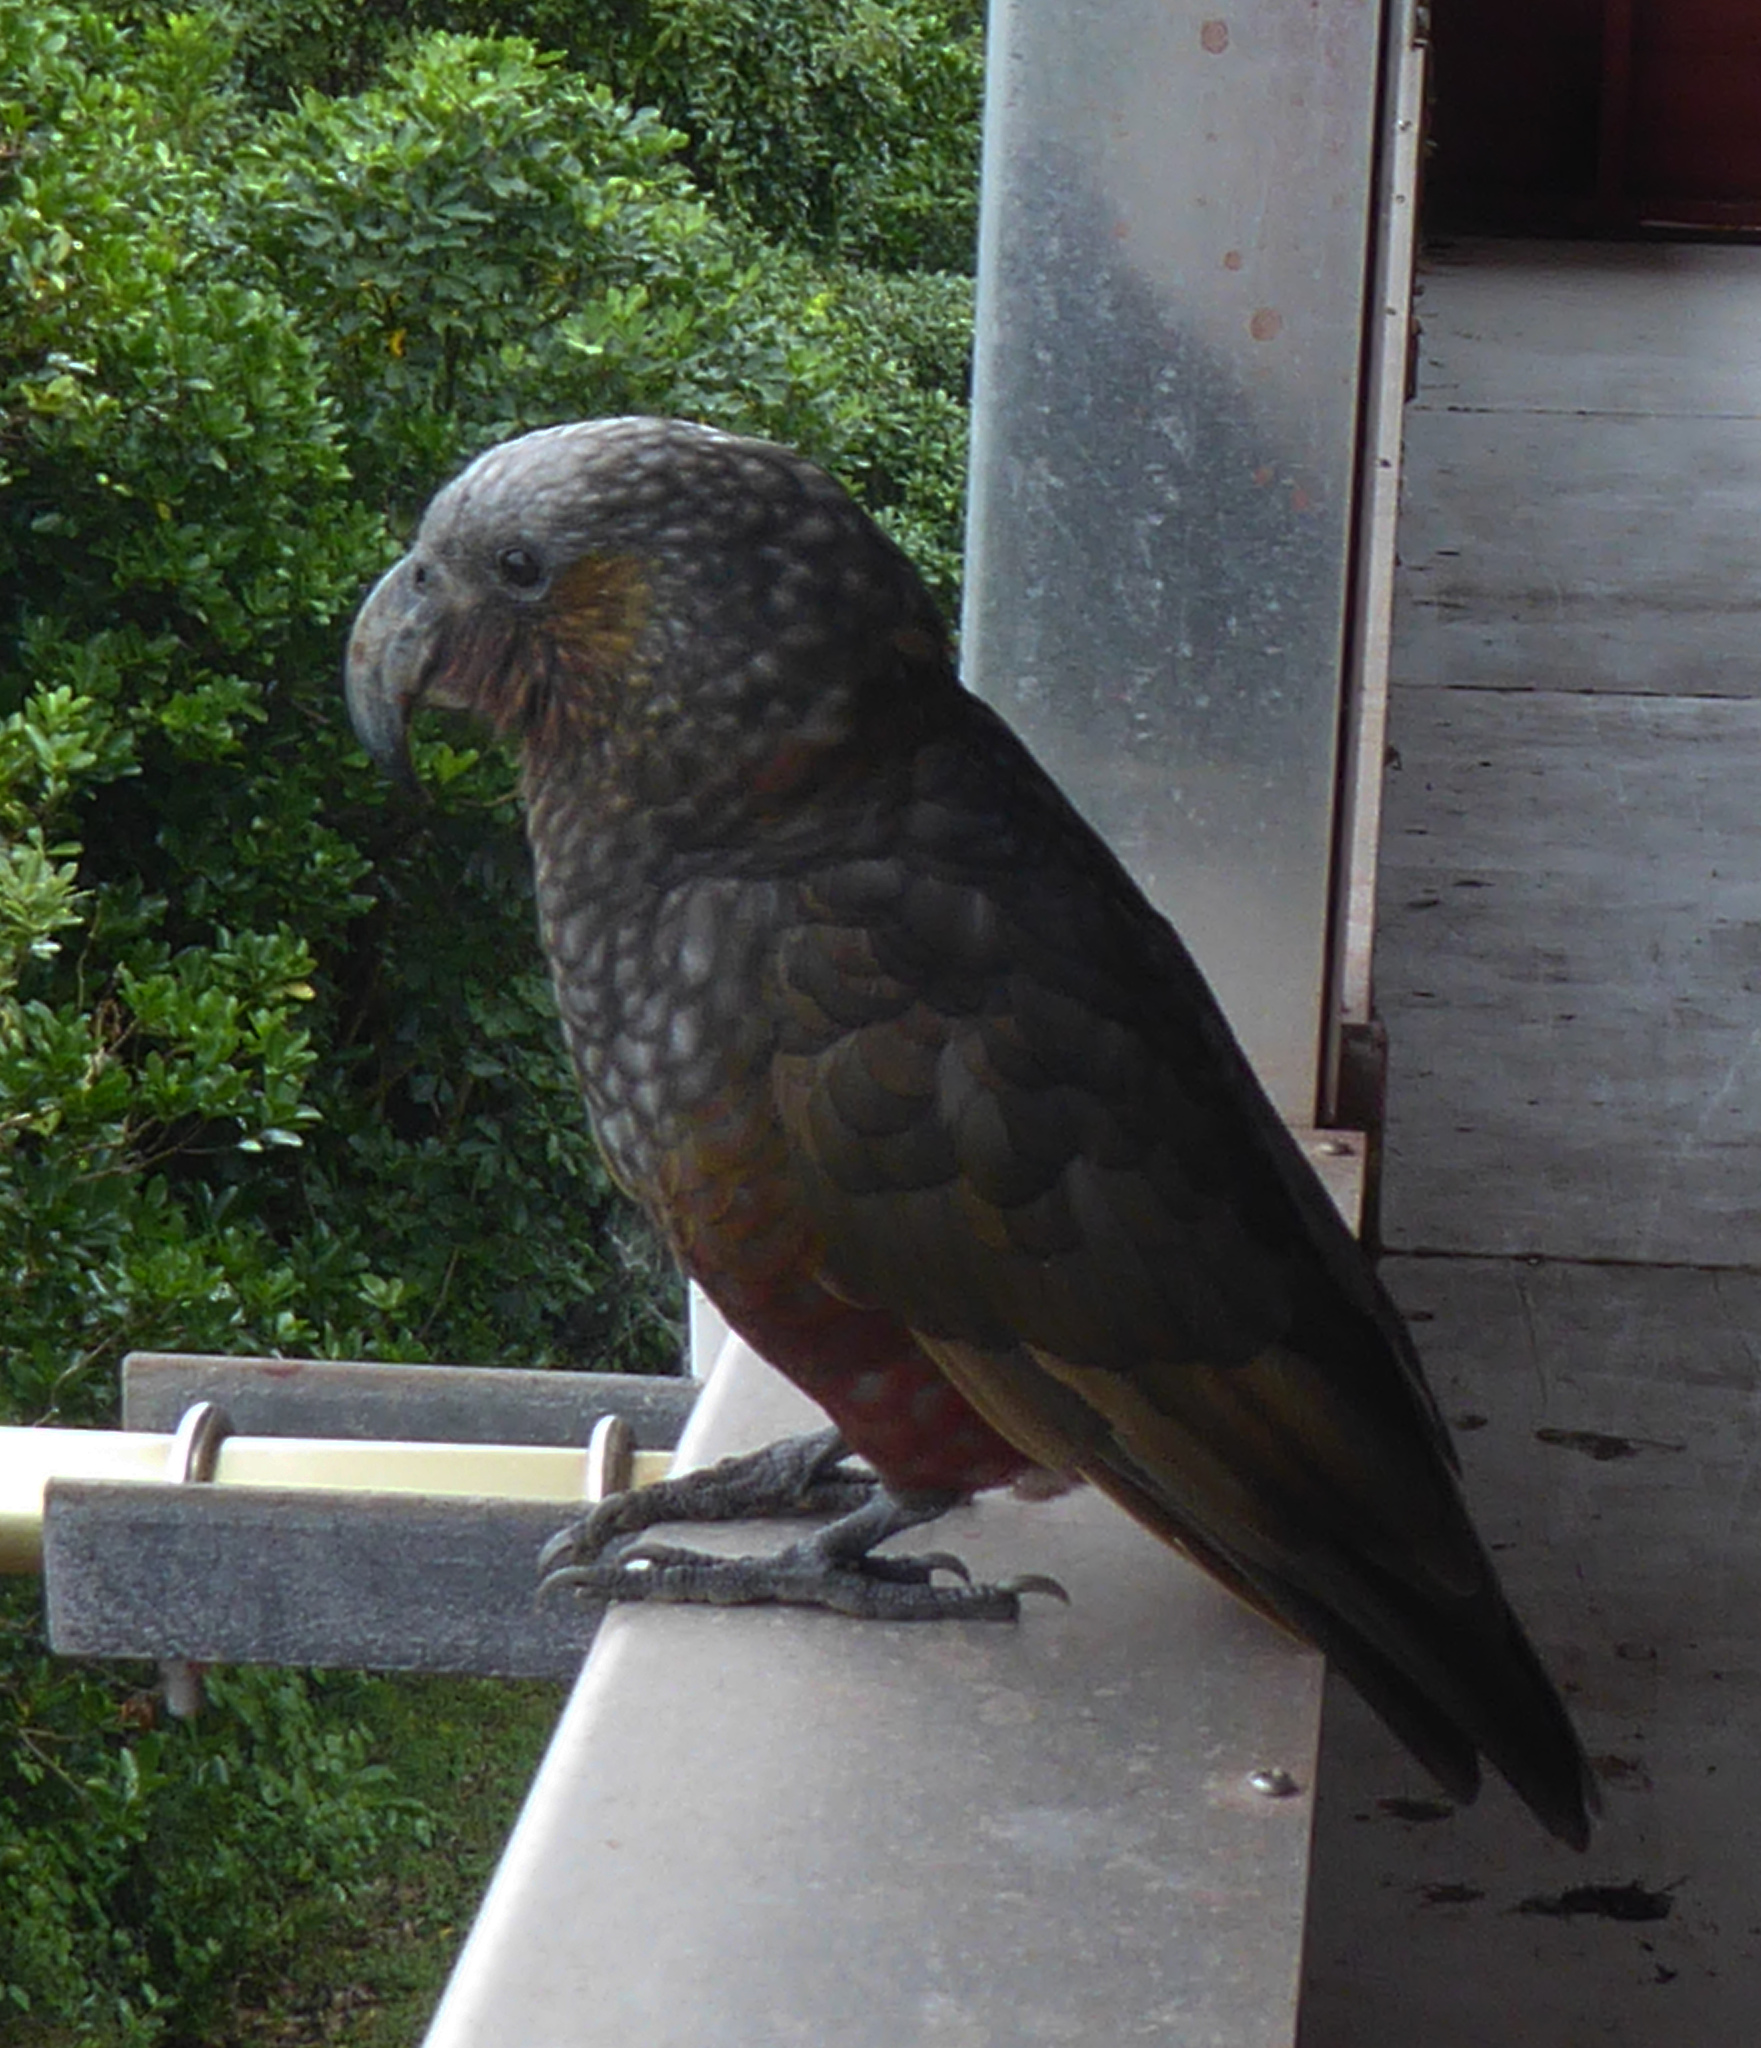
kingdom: Animalia
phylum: Chordata
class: Aves
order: Psittaciformes
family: Psittacidae
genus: Nestor
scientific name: Nestor meridionalis
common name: New zealand kaka
